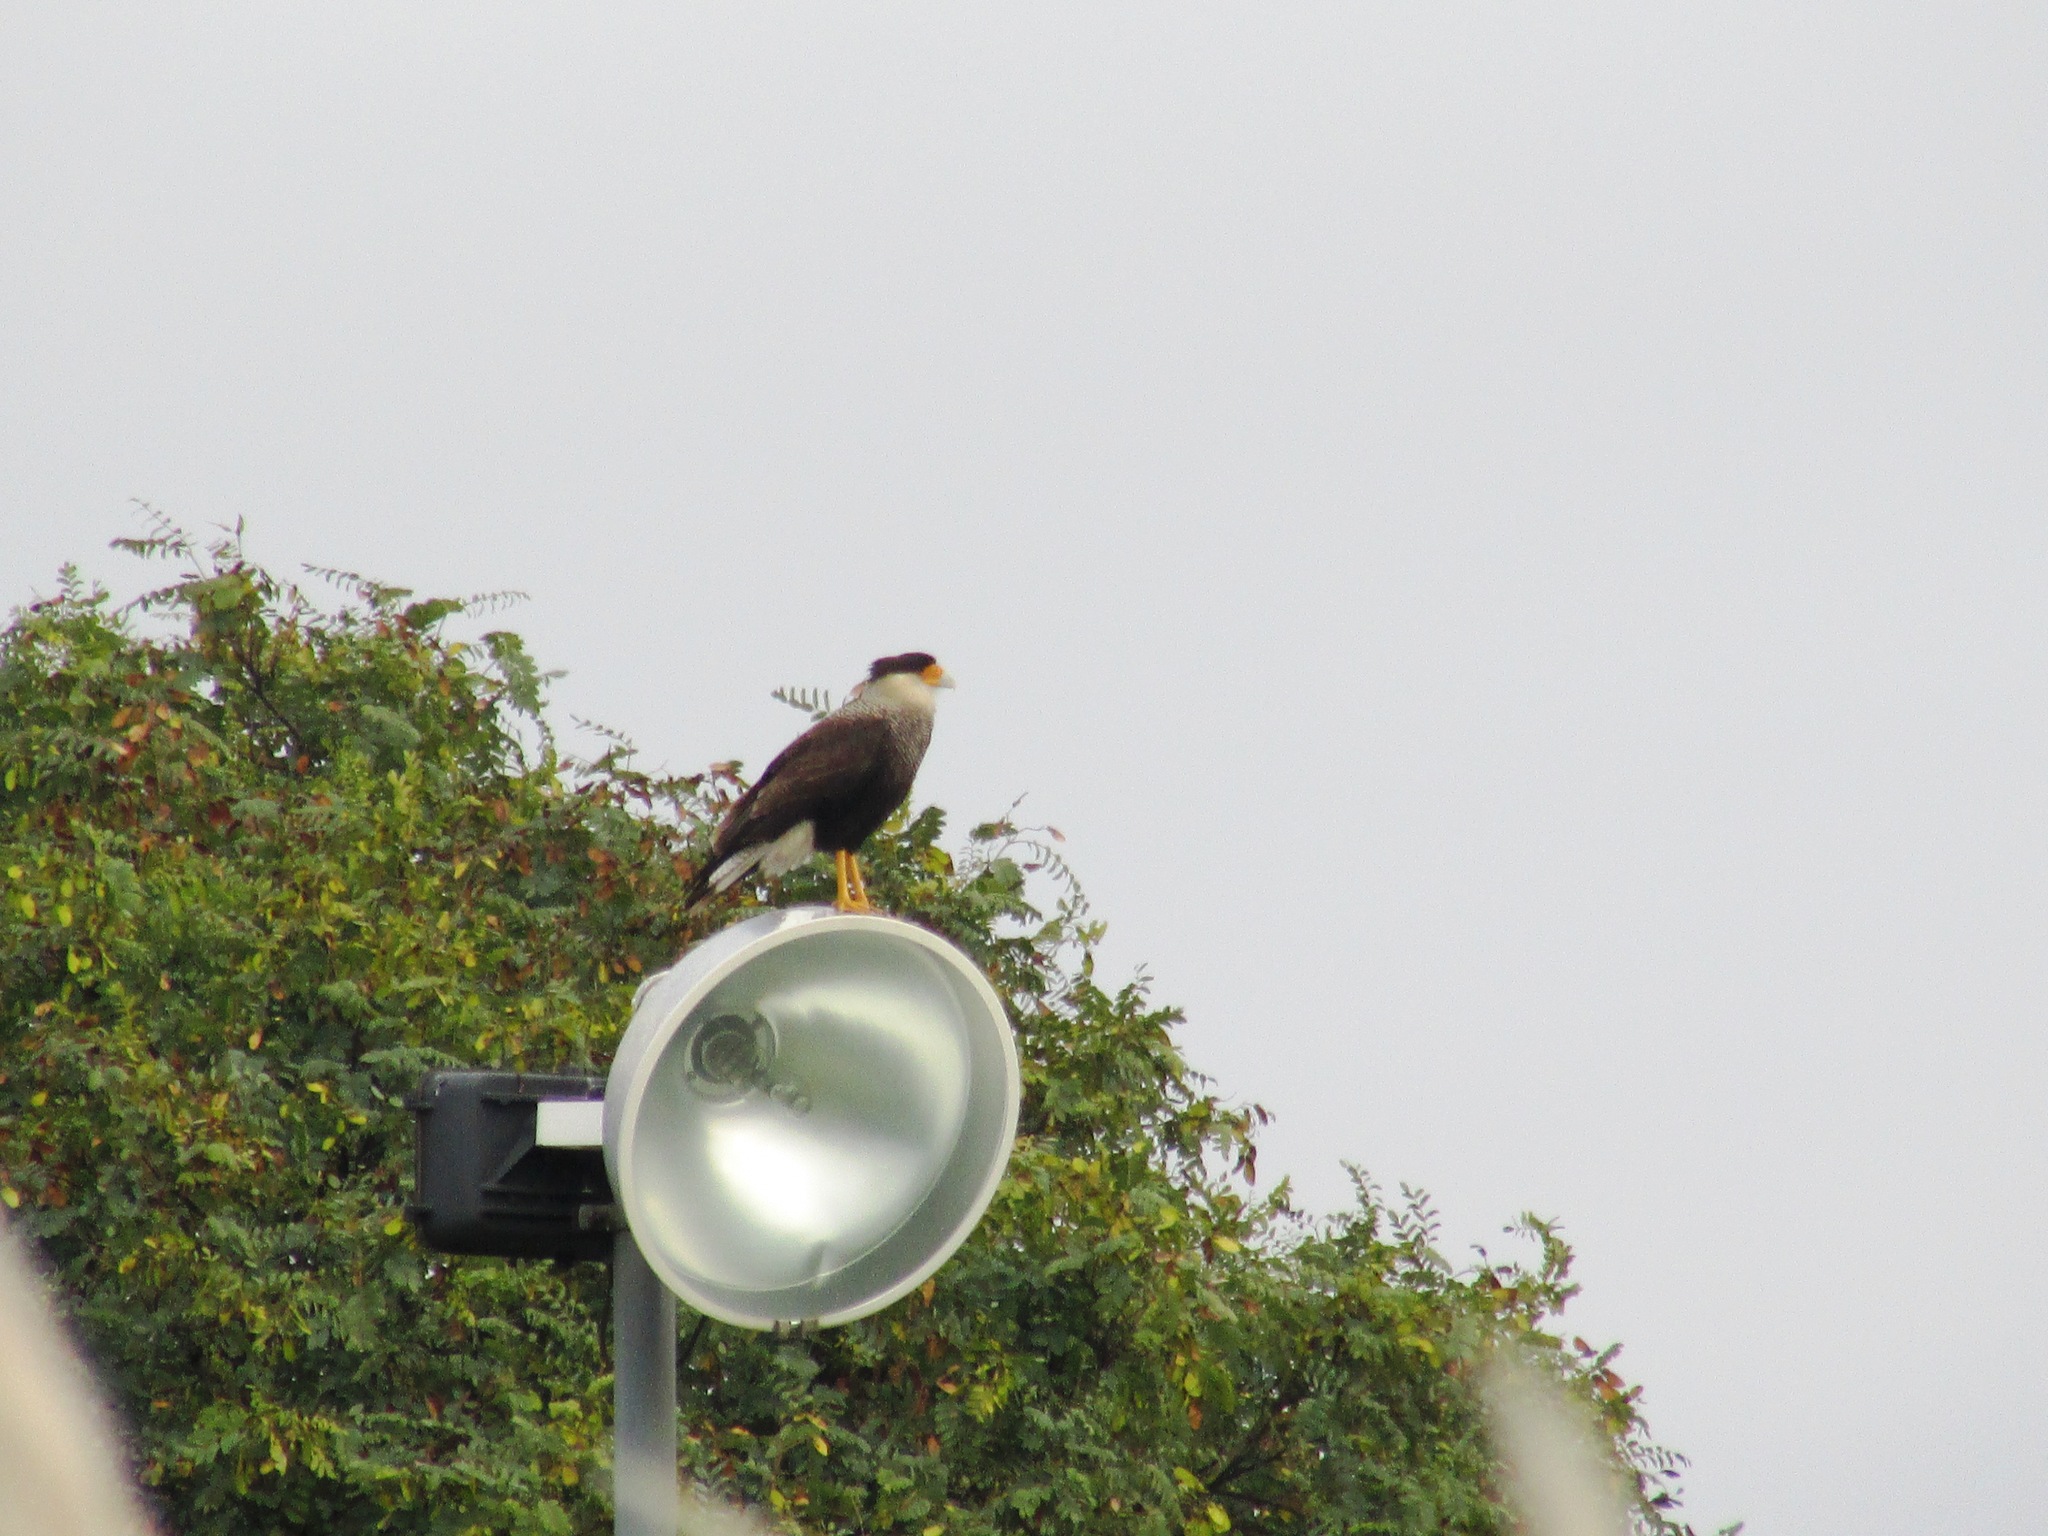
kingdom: Animalia
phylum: Chordata
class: Aves
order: Falconiformes
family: Falconidae
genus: Caracara
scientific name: Caracara plancus
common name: Southern caracara
